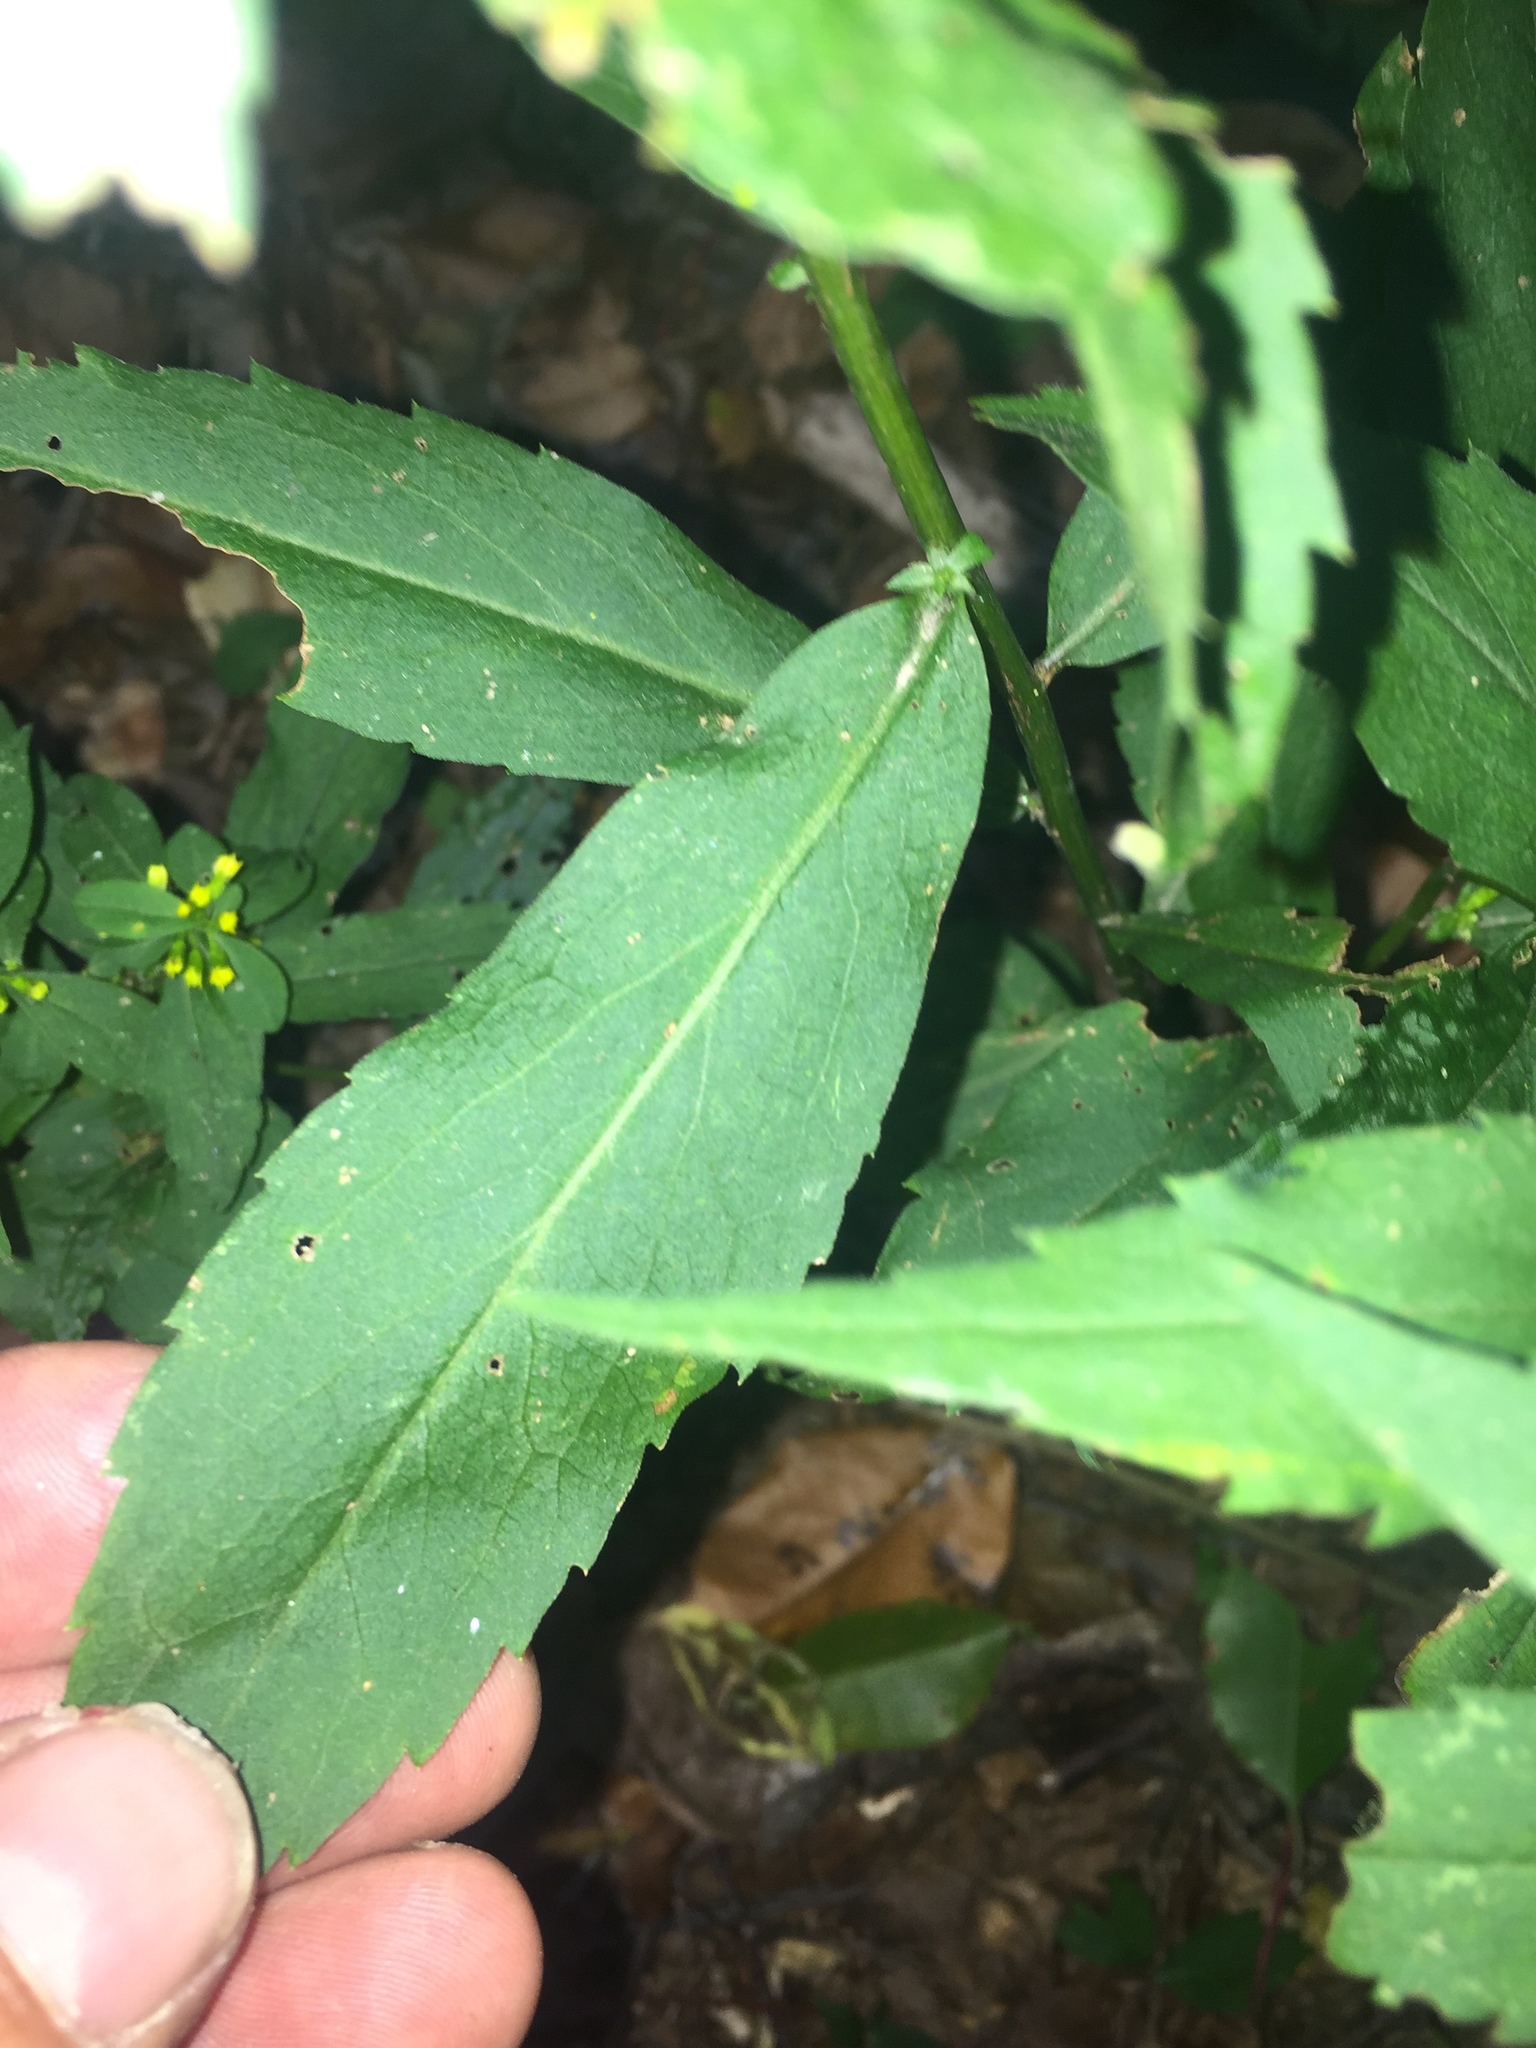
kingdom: Plantae
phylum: Tracheophyta
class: Magnoliopsida
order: Asterales
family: Asteraceae
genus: Solidago
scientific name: Solidago caesia
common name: Woodland goldenrod
